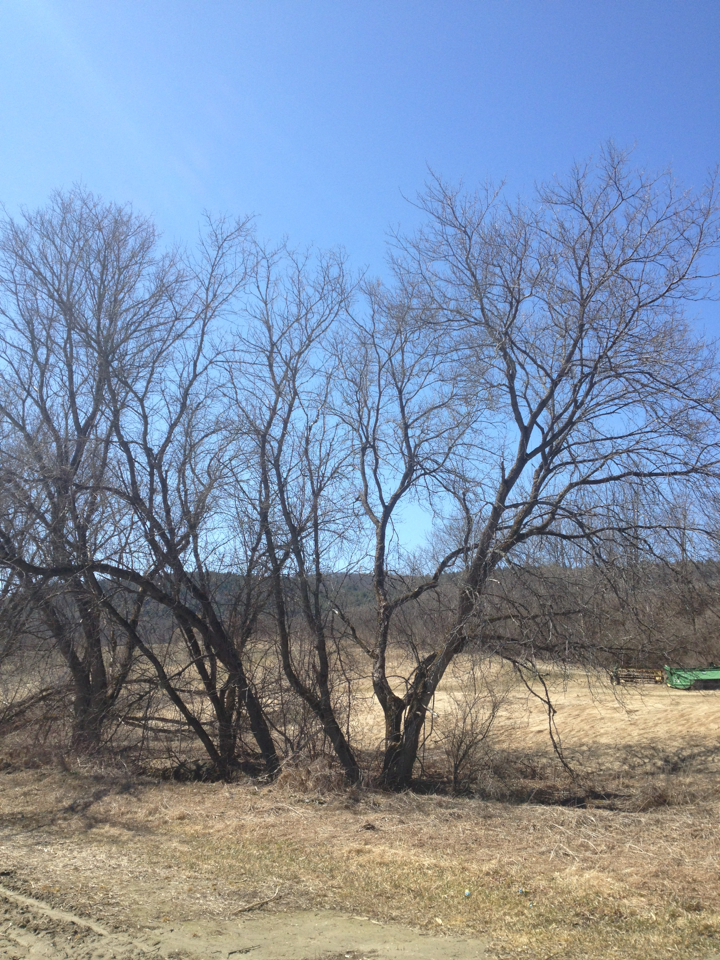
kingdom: Plantae
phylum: Tracheophyta
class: Magnoliopsida
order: Sapindales
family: Sapindaceae
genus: Acer
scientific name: Acer negundo
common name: Ashleaf maple
